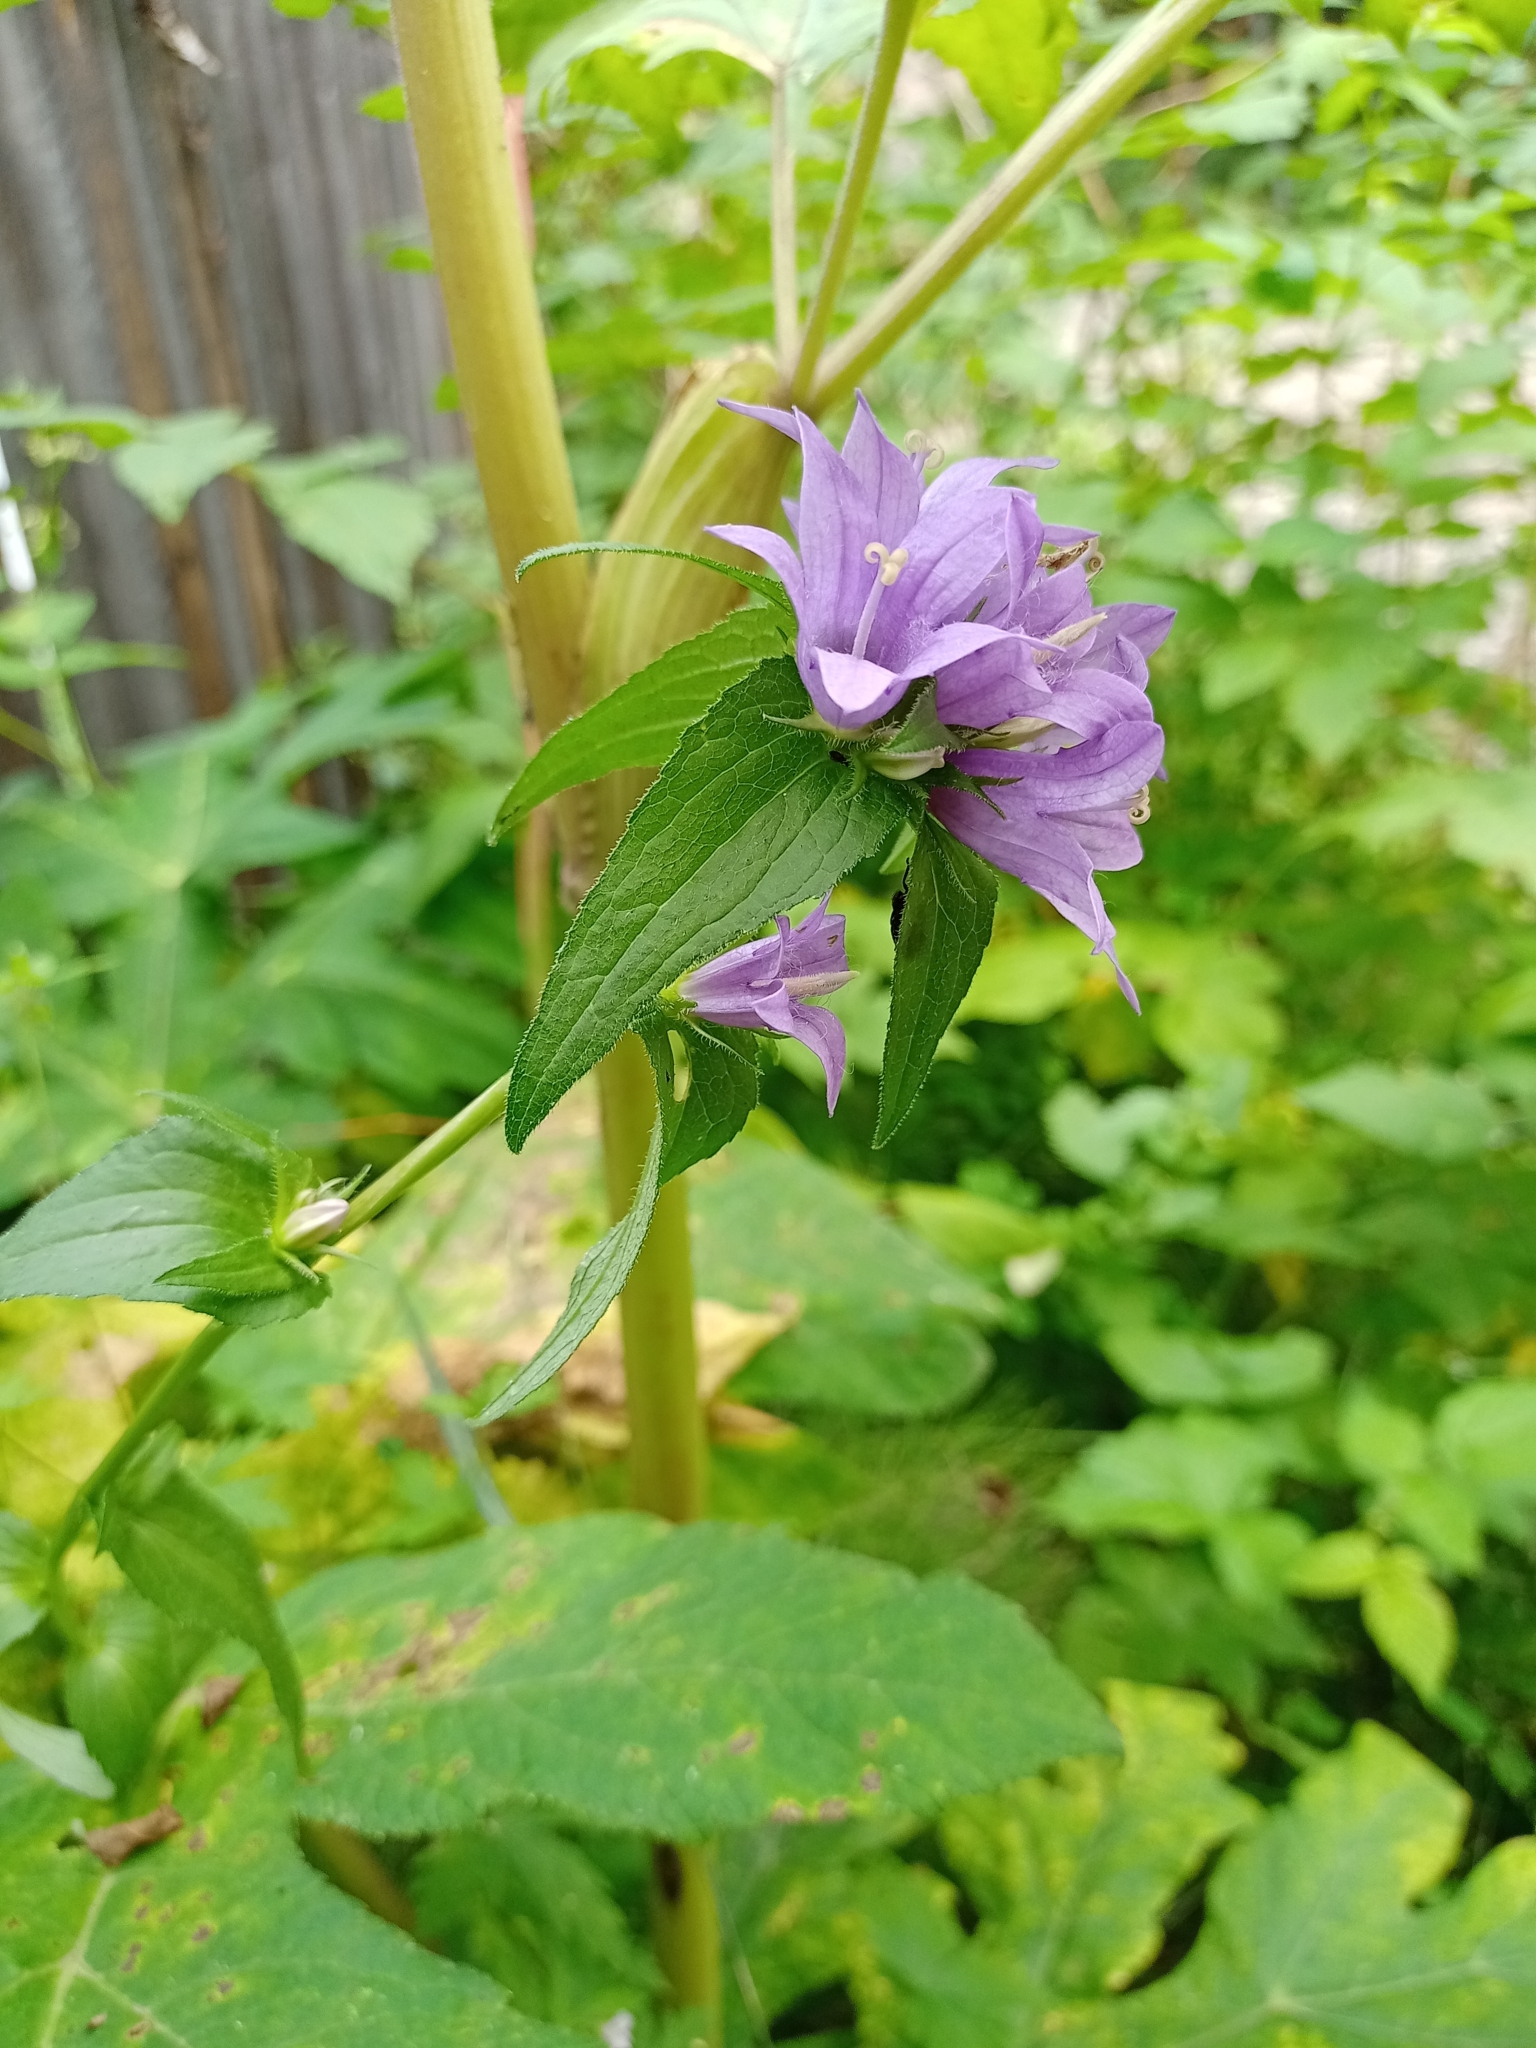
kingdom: Plantae
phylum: Tracheophyta
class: Magnoliopsida
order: Asterales
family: Campanulaceae
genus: Campanula
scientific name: Campanula glomerata
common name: Clustered bellflower
